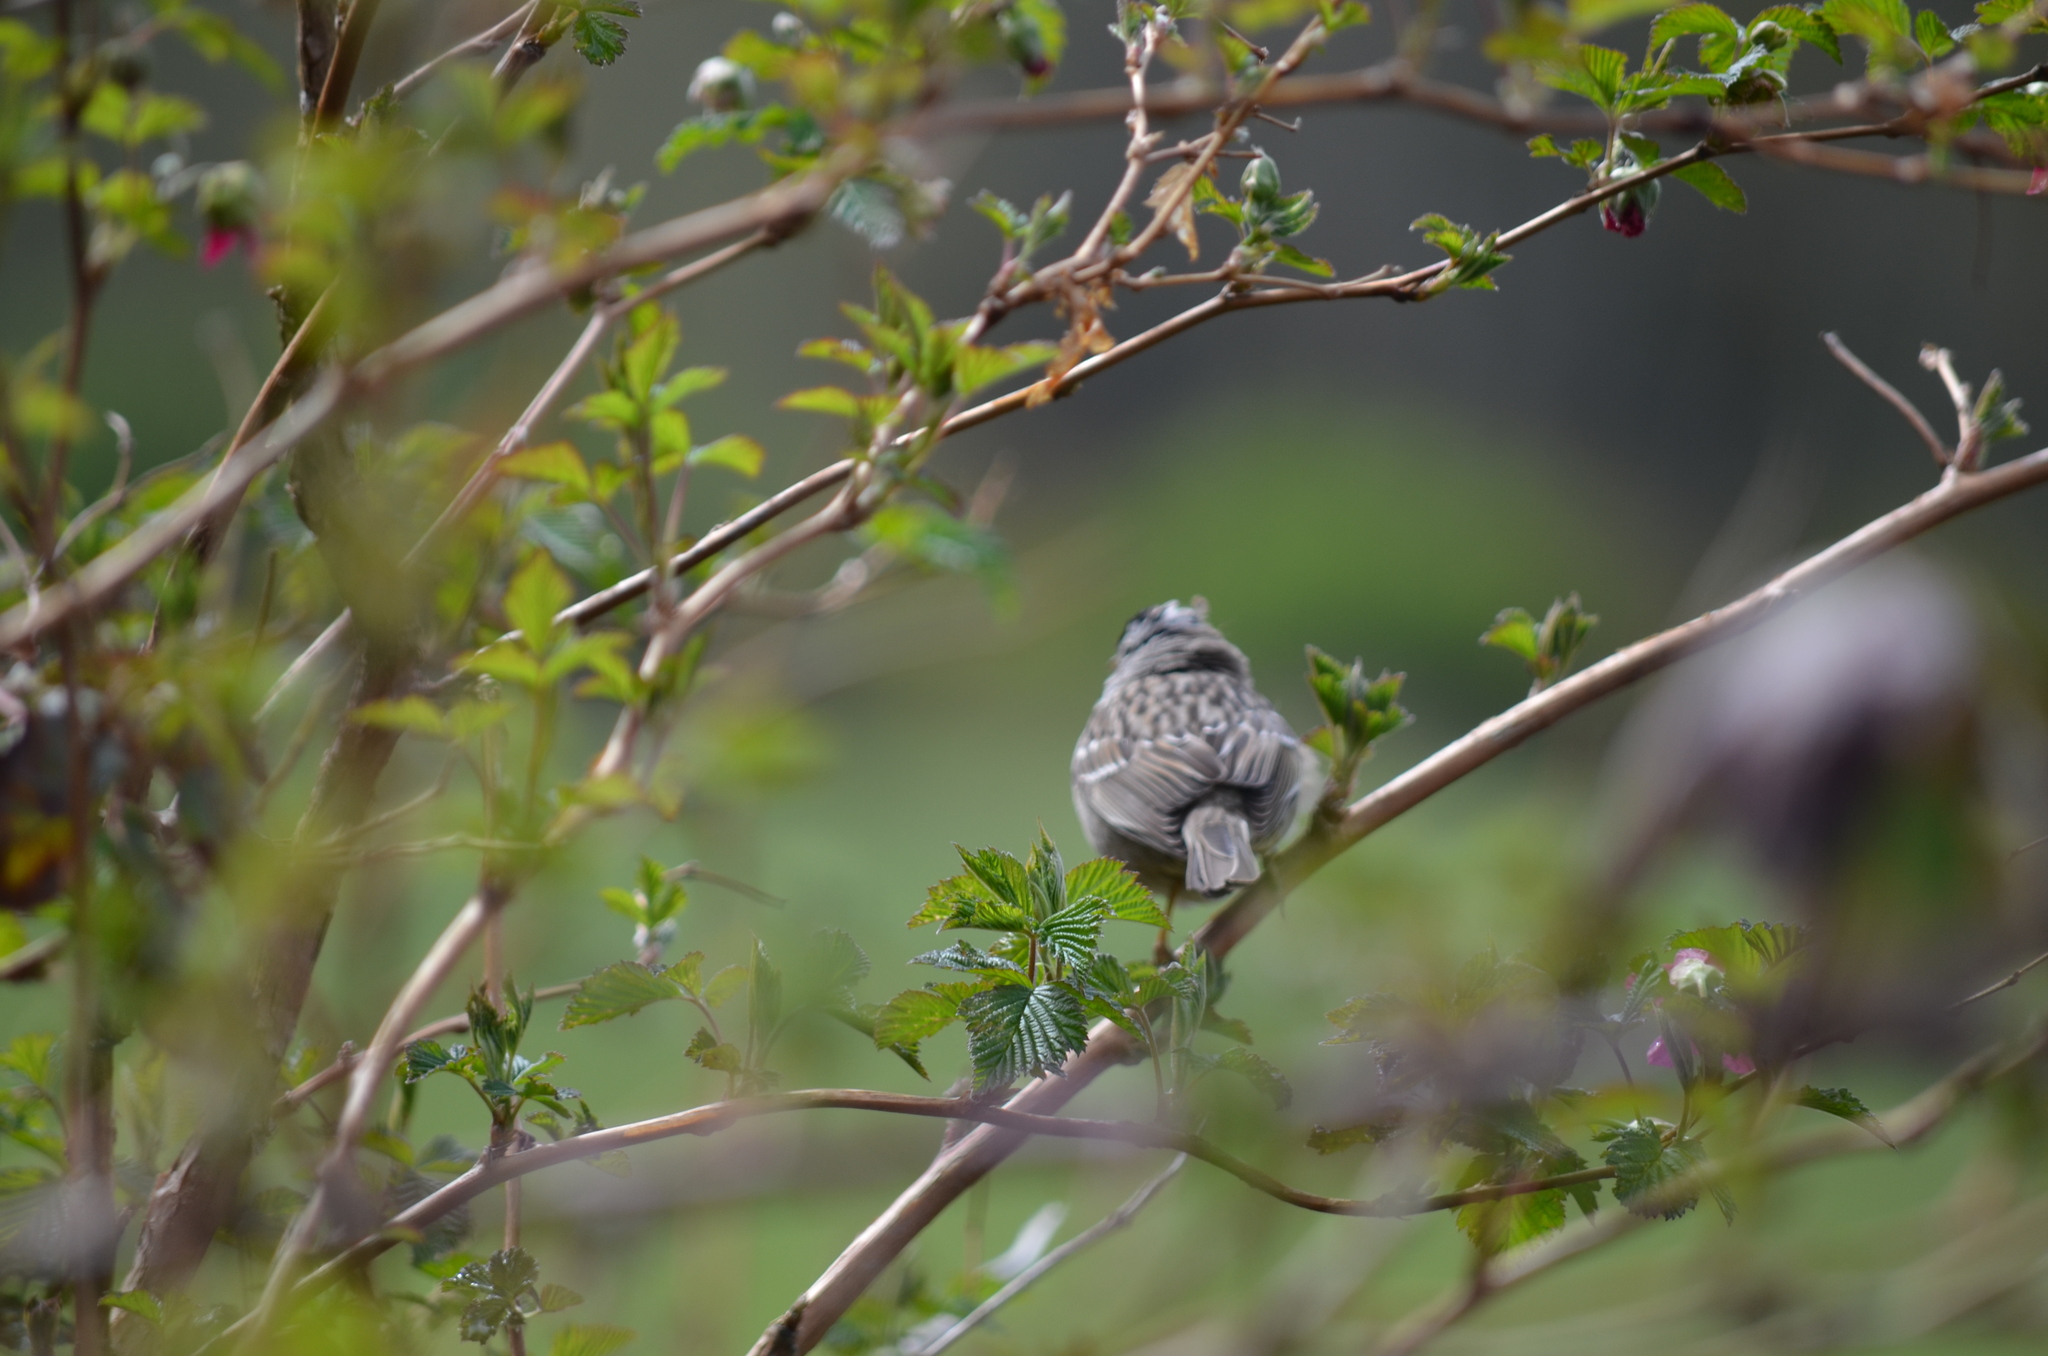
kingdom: Animalia
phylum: Chordata
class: Aves
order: Passeriformes
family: Passerellidae
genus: Zonotrichia
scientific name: Zonotrichia leucophrys
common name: White-crowned sparrow
